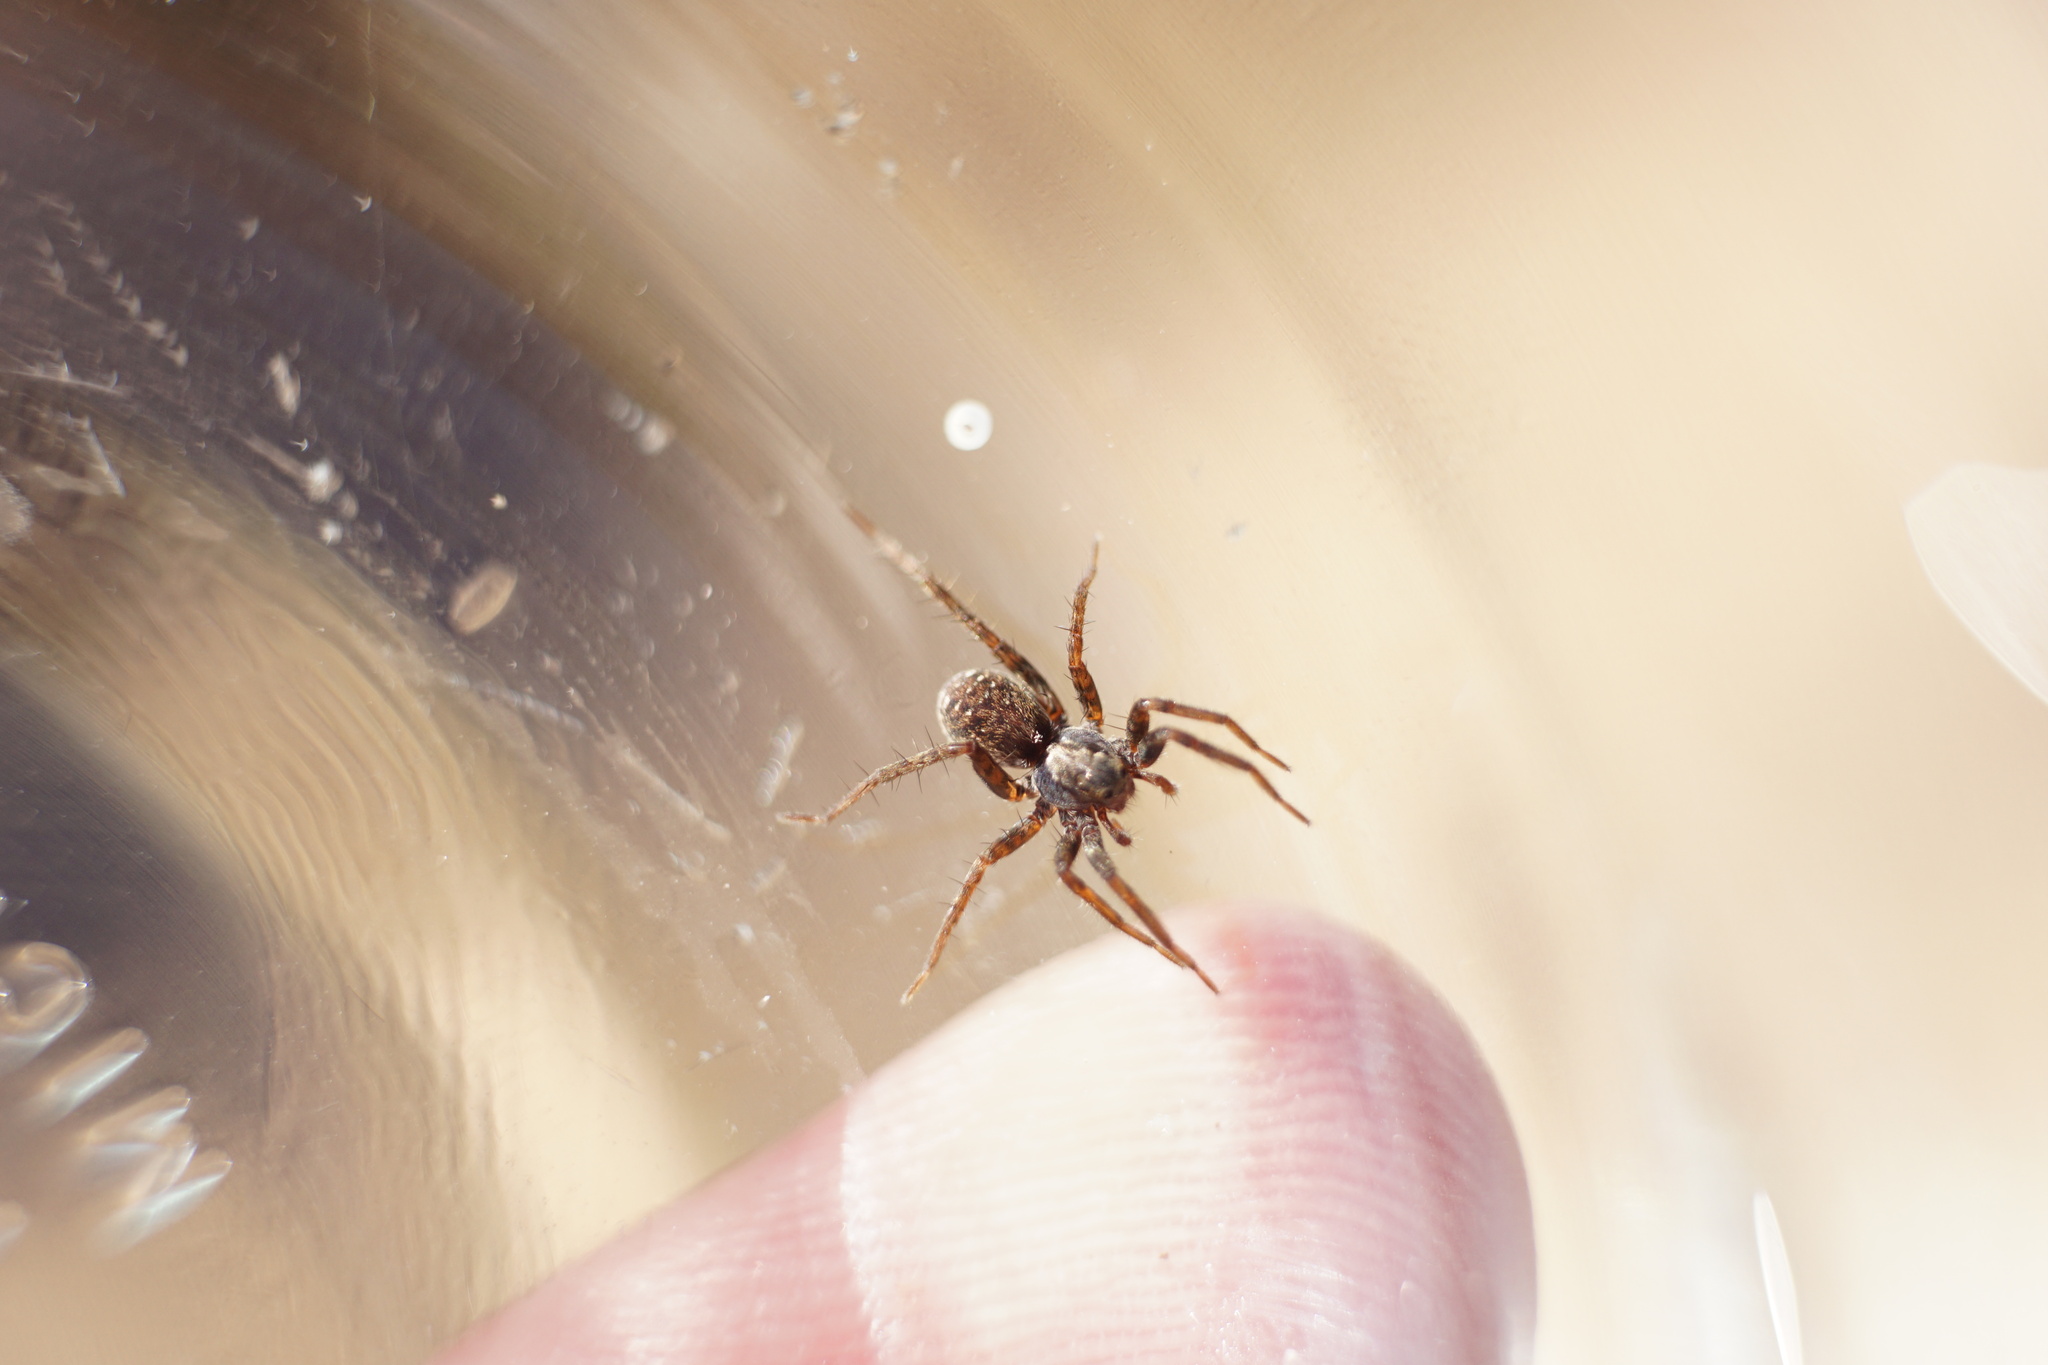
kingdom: Animalia
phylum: Arthropoda
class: Arachnida
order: Araneae
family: Lycosidae
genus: Pardosa
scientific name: Pardosa milvina
